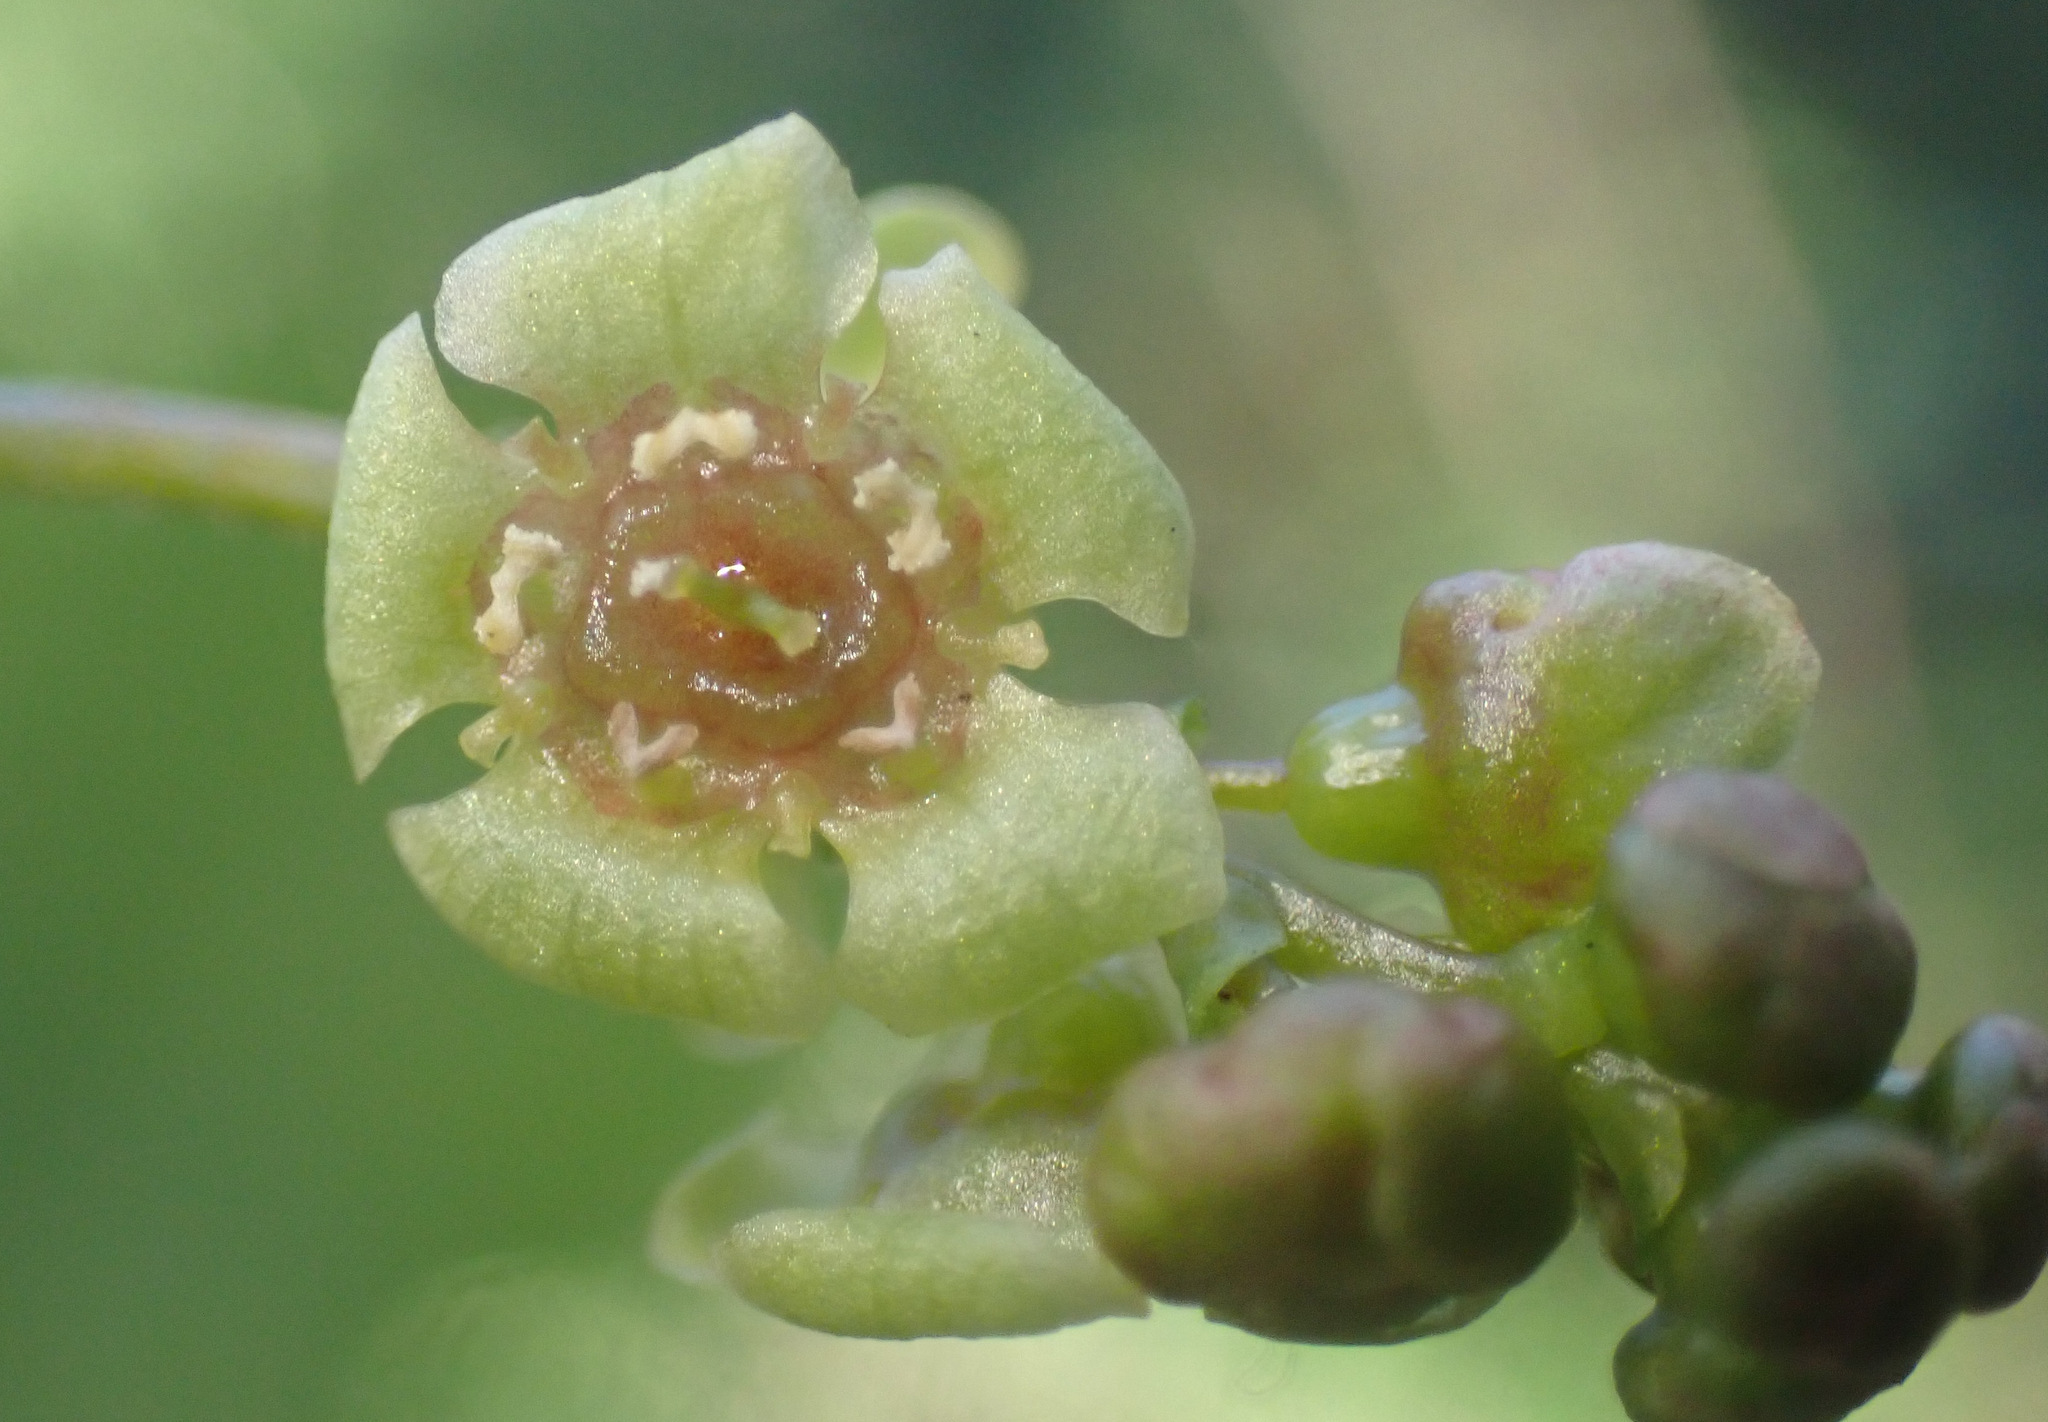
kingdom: Plantae
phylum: Tracheophyta
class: Magnoliopsida
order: Saxifragales
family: Grossulariaceae
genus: Ribes
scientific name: Ribes rubrum
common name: Red currant
